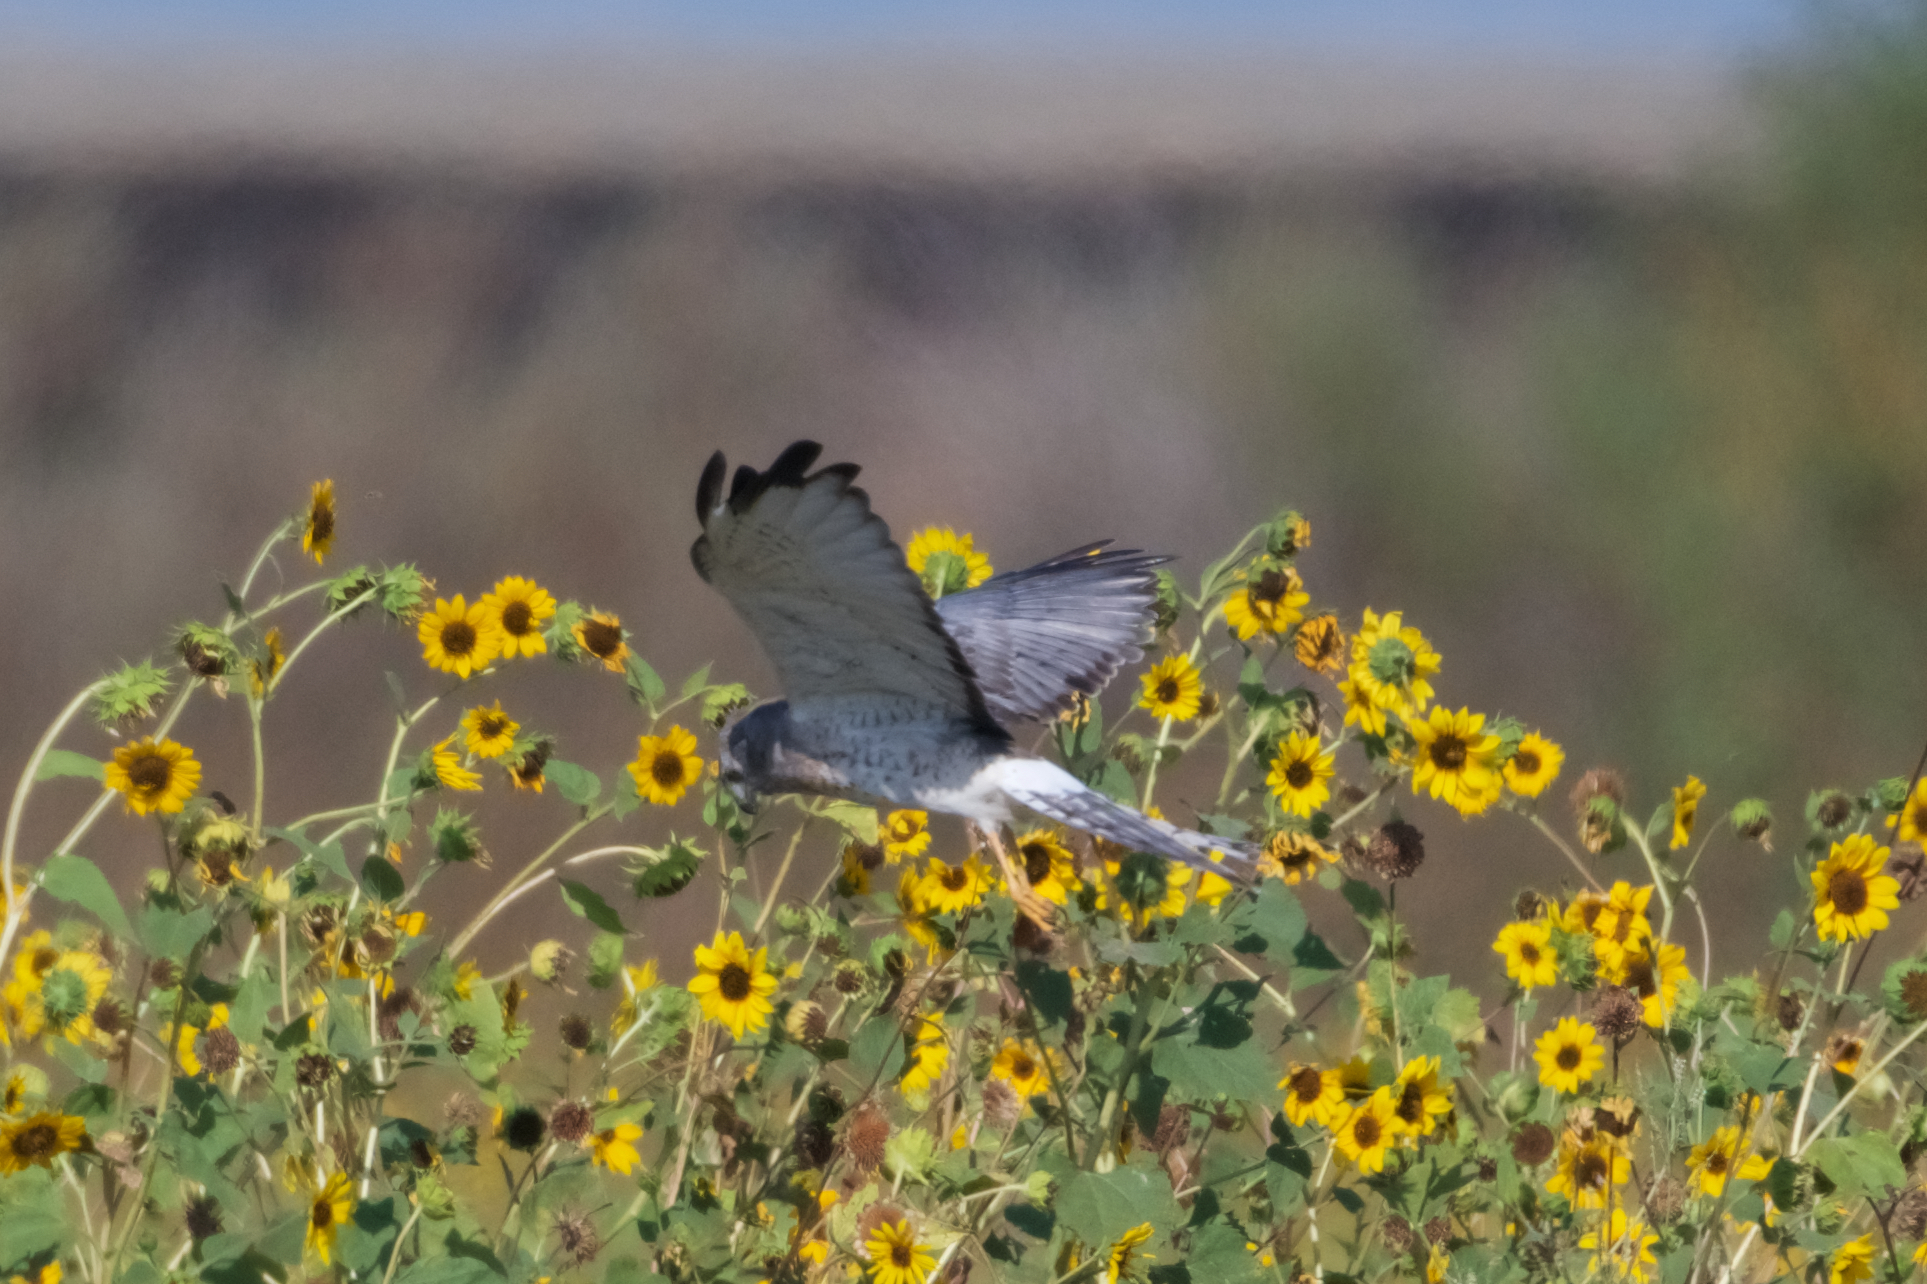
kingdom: Animalia
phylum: Chordata
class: Aves
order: Accipitriformes
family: Accipitridae
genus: Circus
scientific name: Circus cyaneus
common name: Hen harrier
